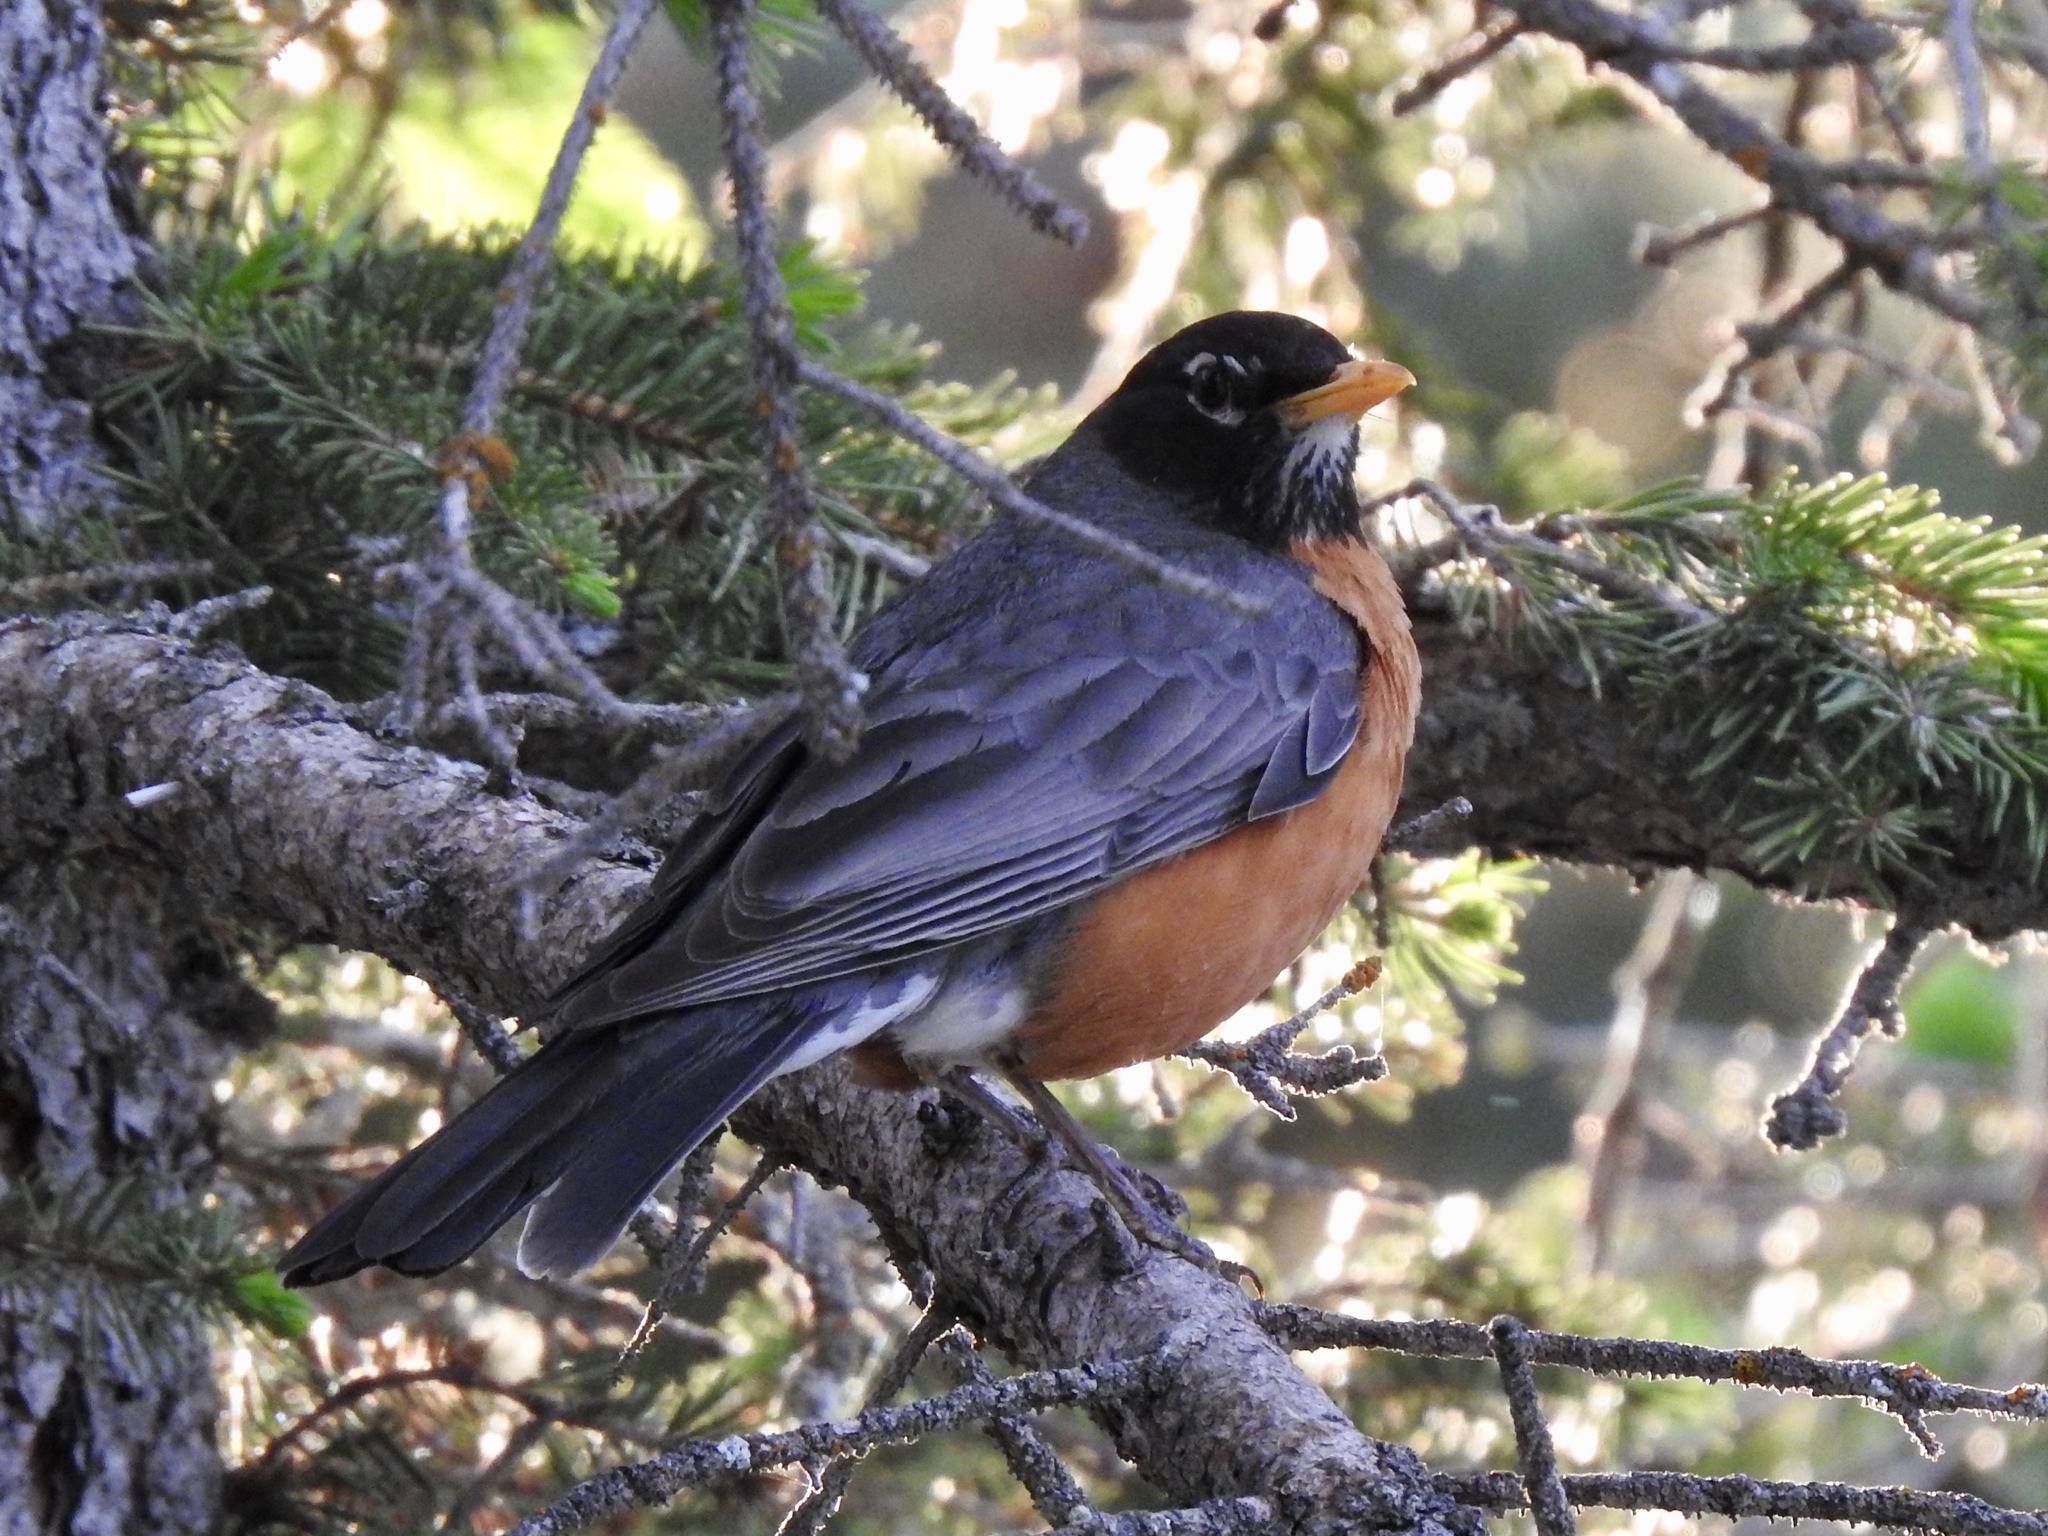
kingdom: Animalia
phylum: Chordata
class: Aves
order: Passeriformes
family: Turdidae
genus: Turdus
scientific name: Turdus migratorius
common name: American robin
